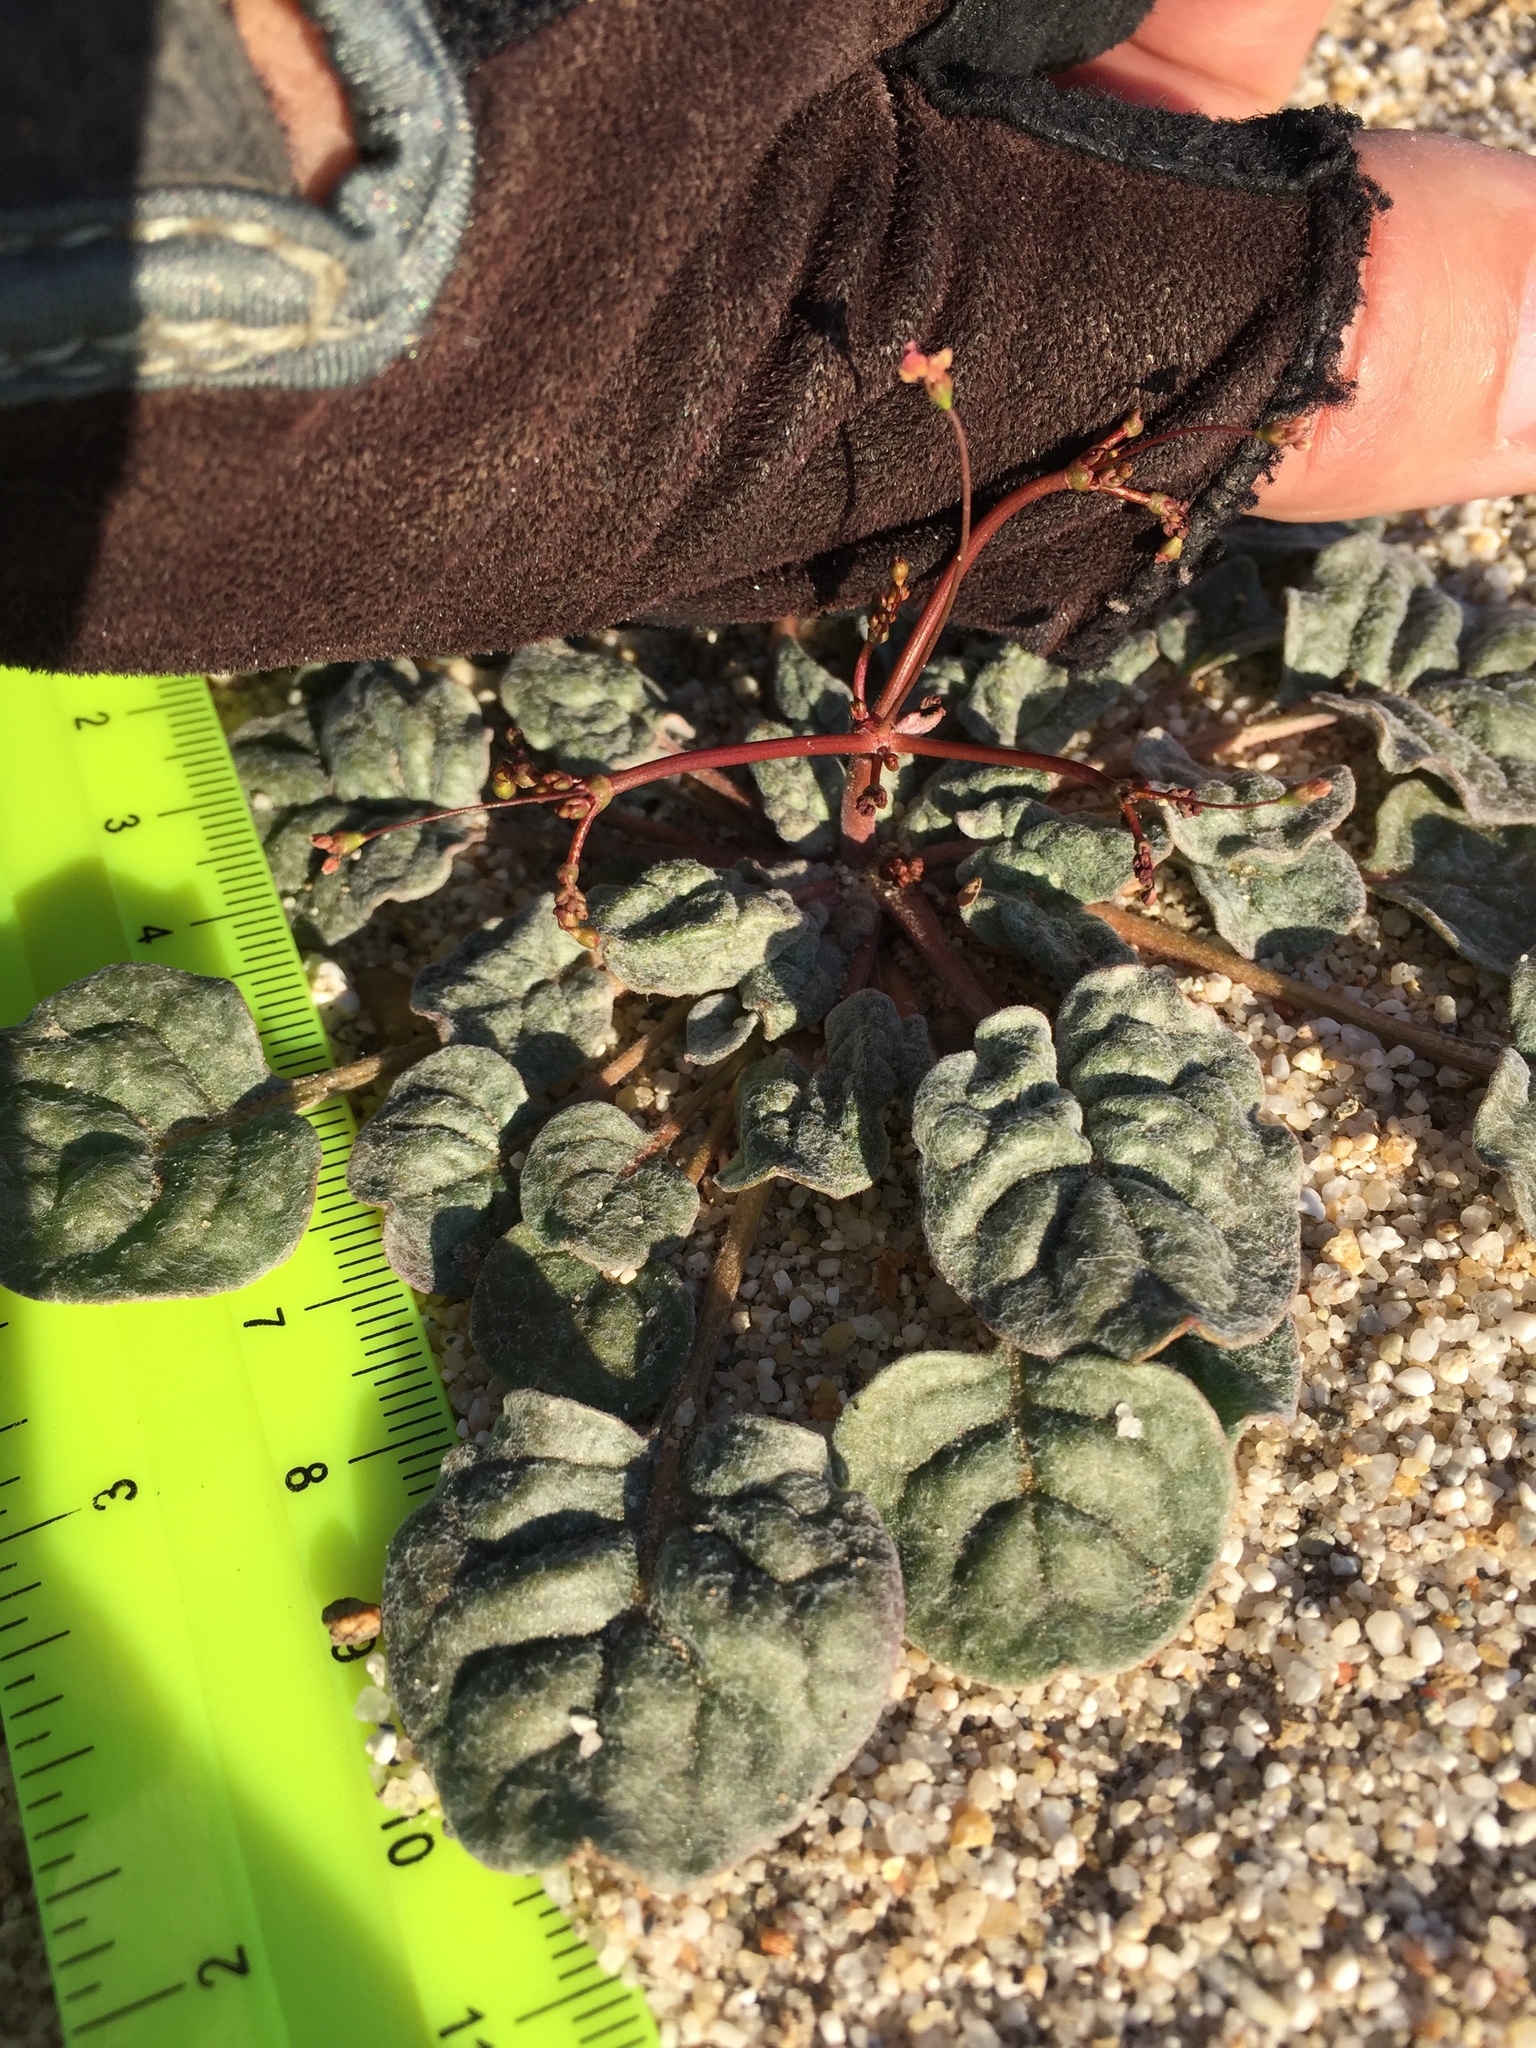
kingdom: Plantae
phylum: Tracheophyta
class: Magnoliopsida
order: Caryophyllales
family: Polygonaceae
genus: Eriogonum
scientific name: Eriogonum thomasii
